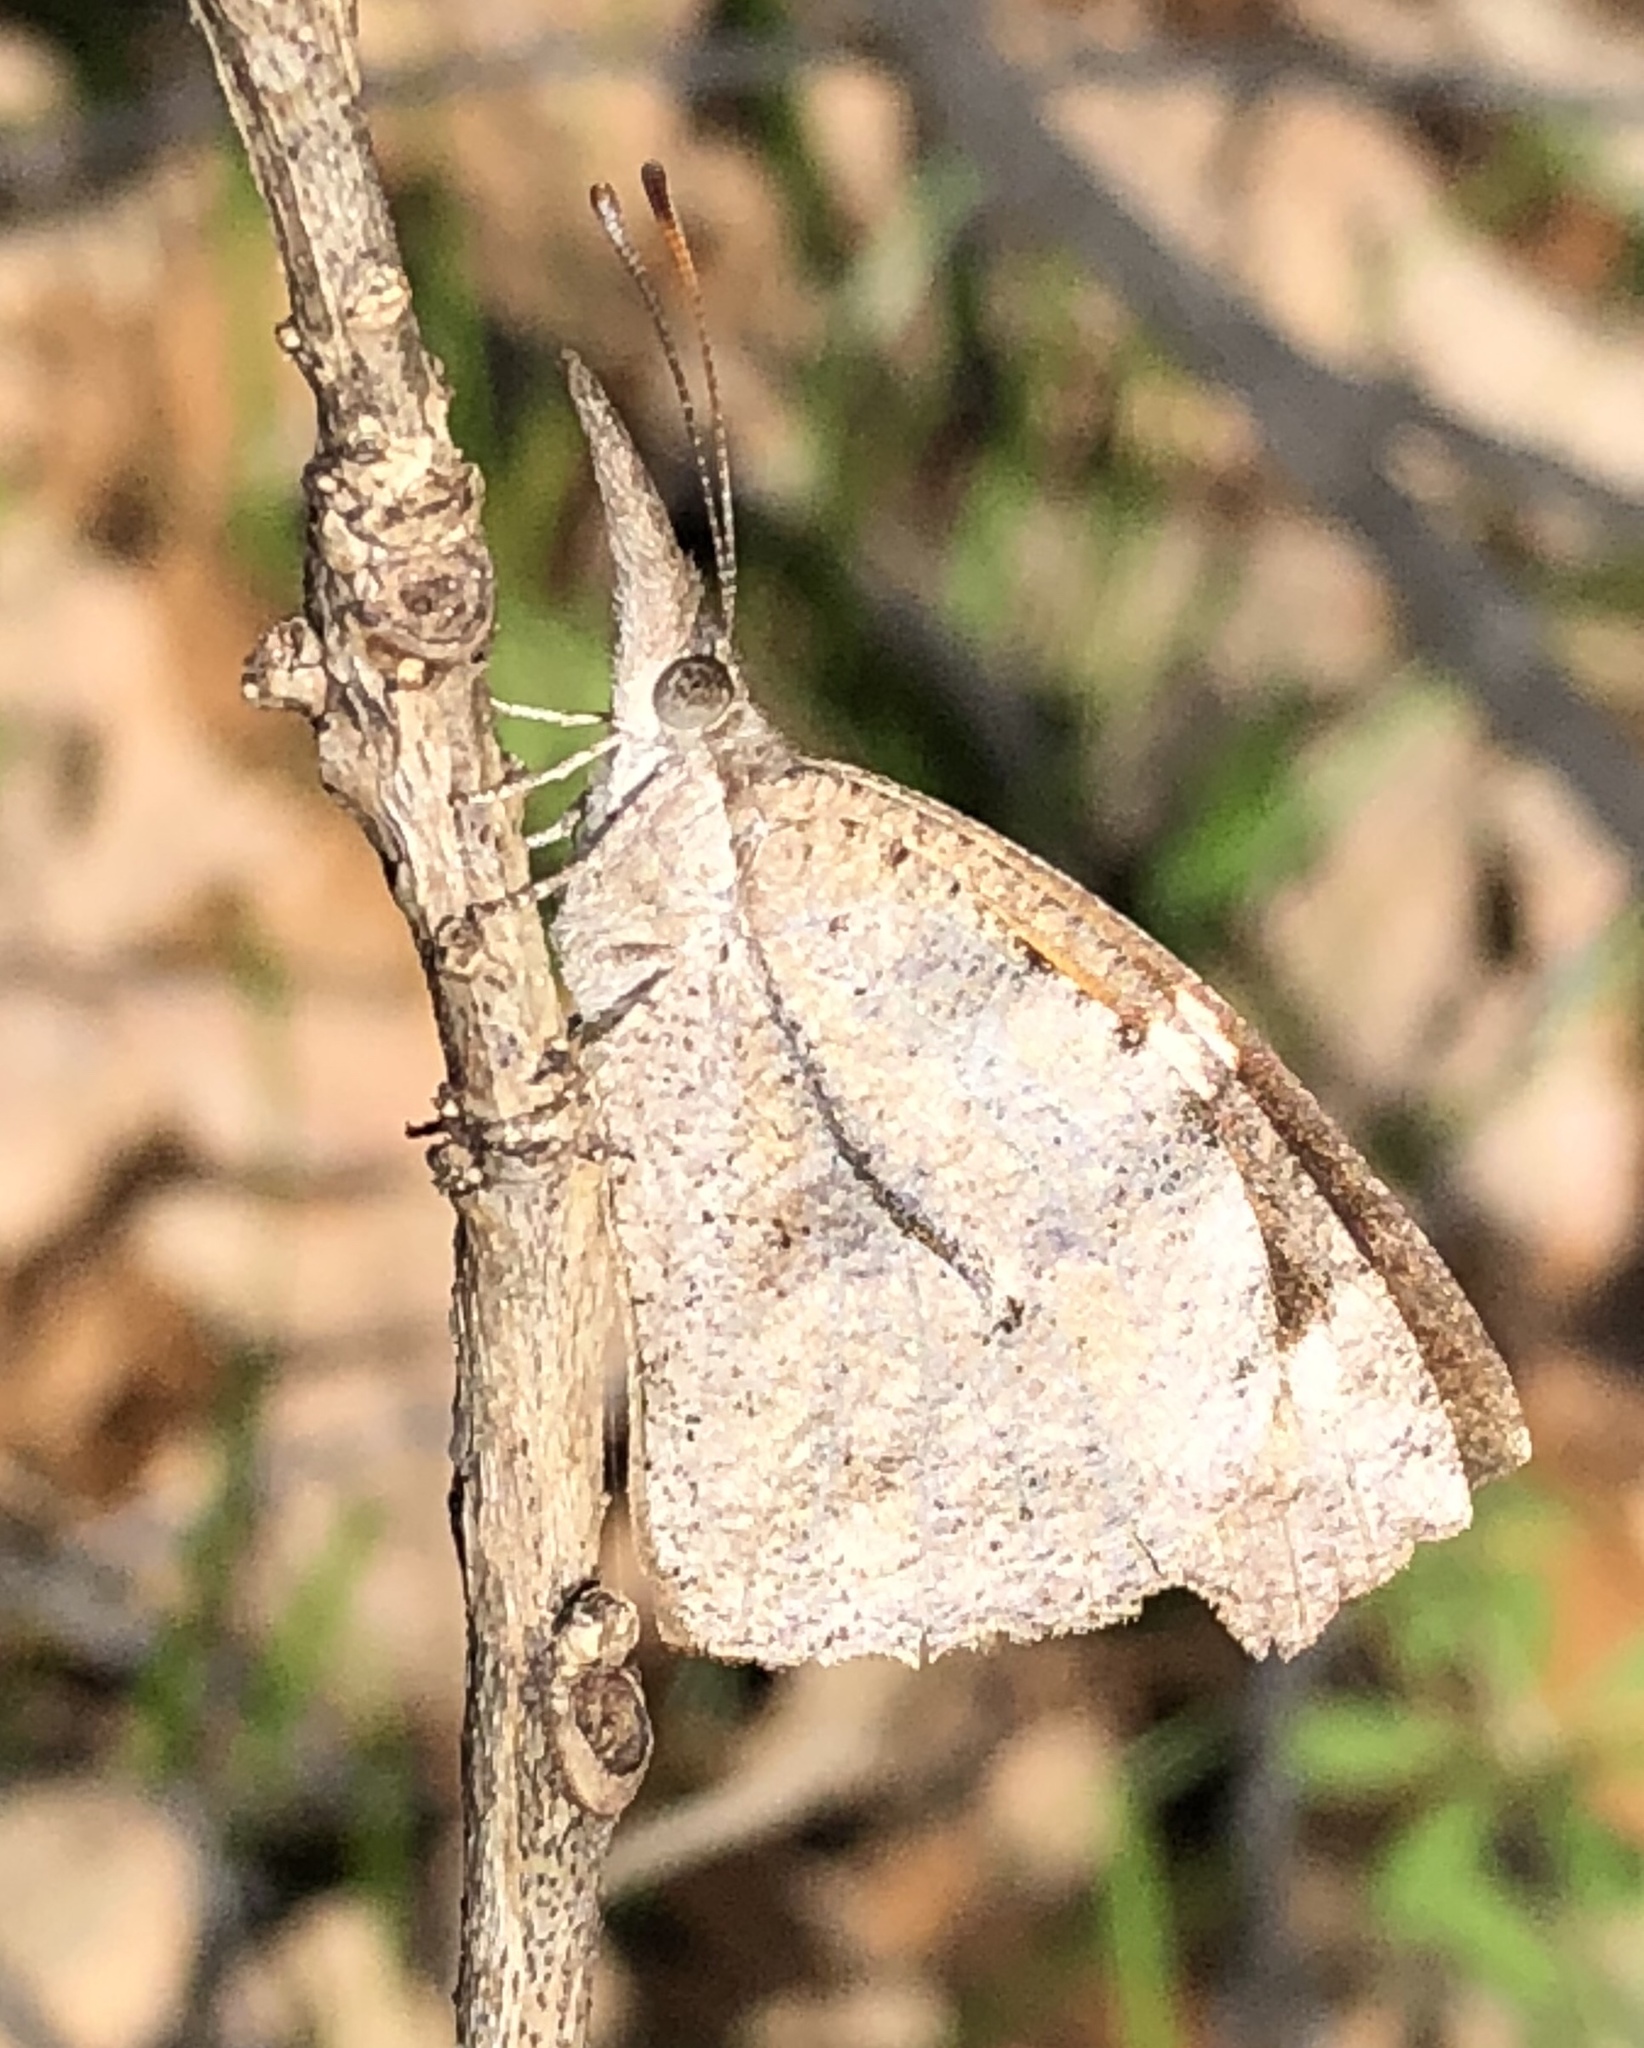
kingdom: Animalia
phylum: Arthropoda
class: Insecta
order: Lepidoptera
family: Nymphalidae
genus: Libytheana
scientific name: Libytheana carinenta
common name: American snout
